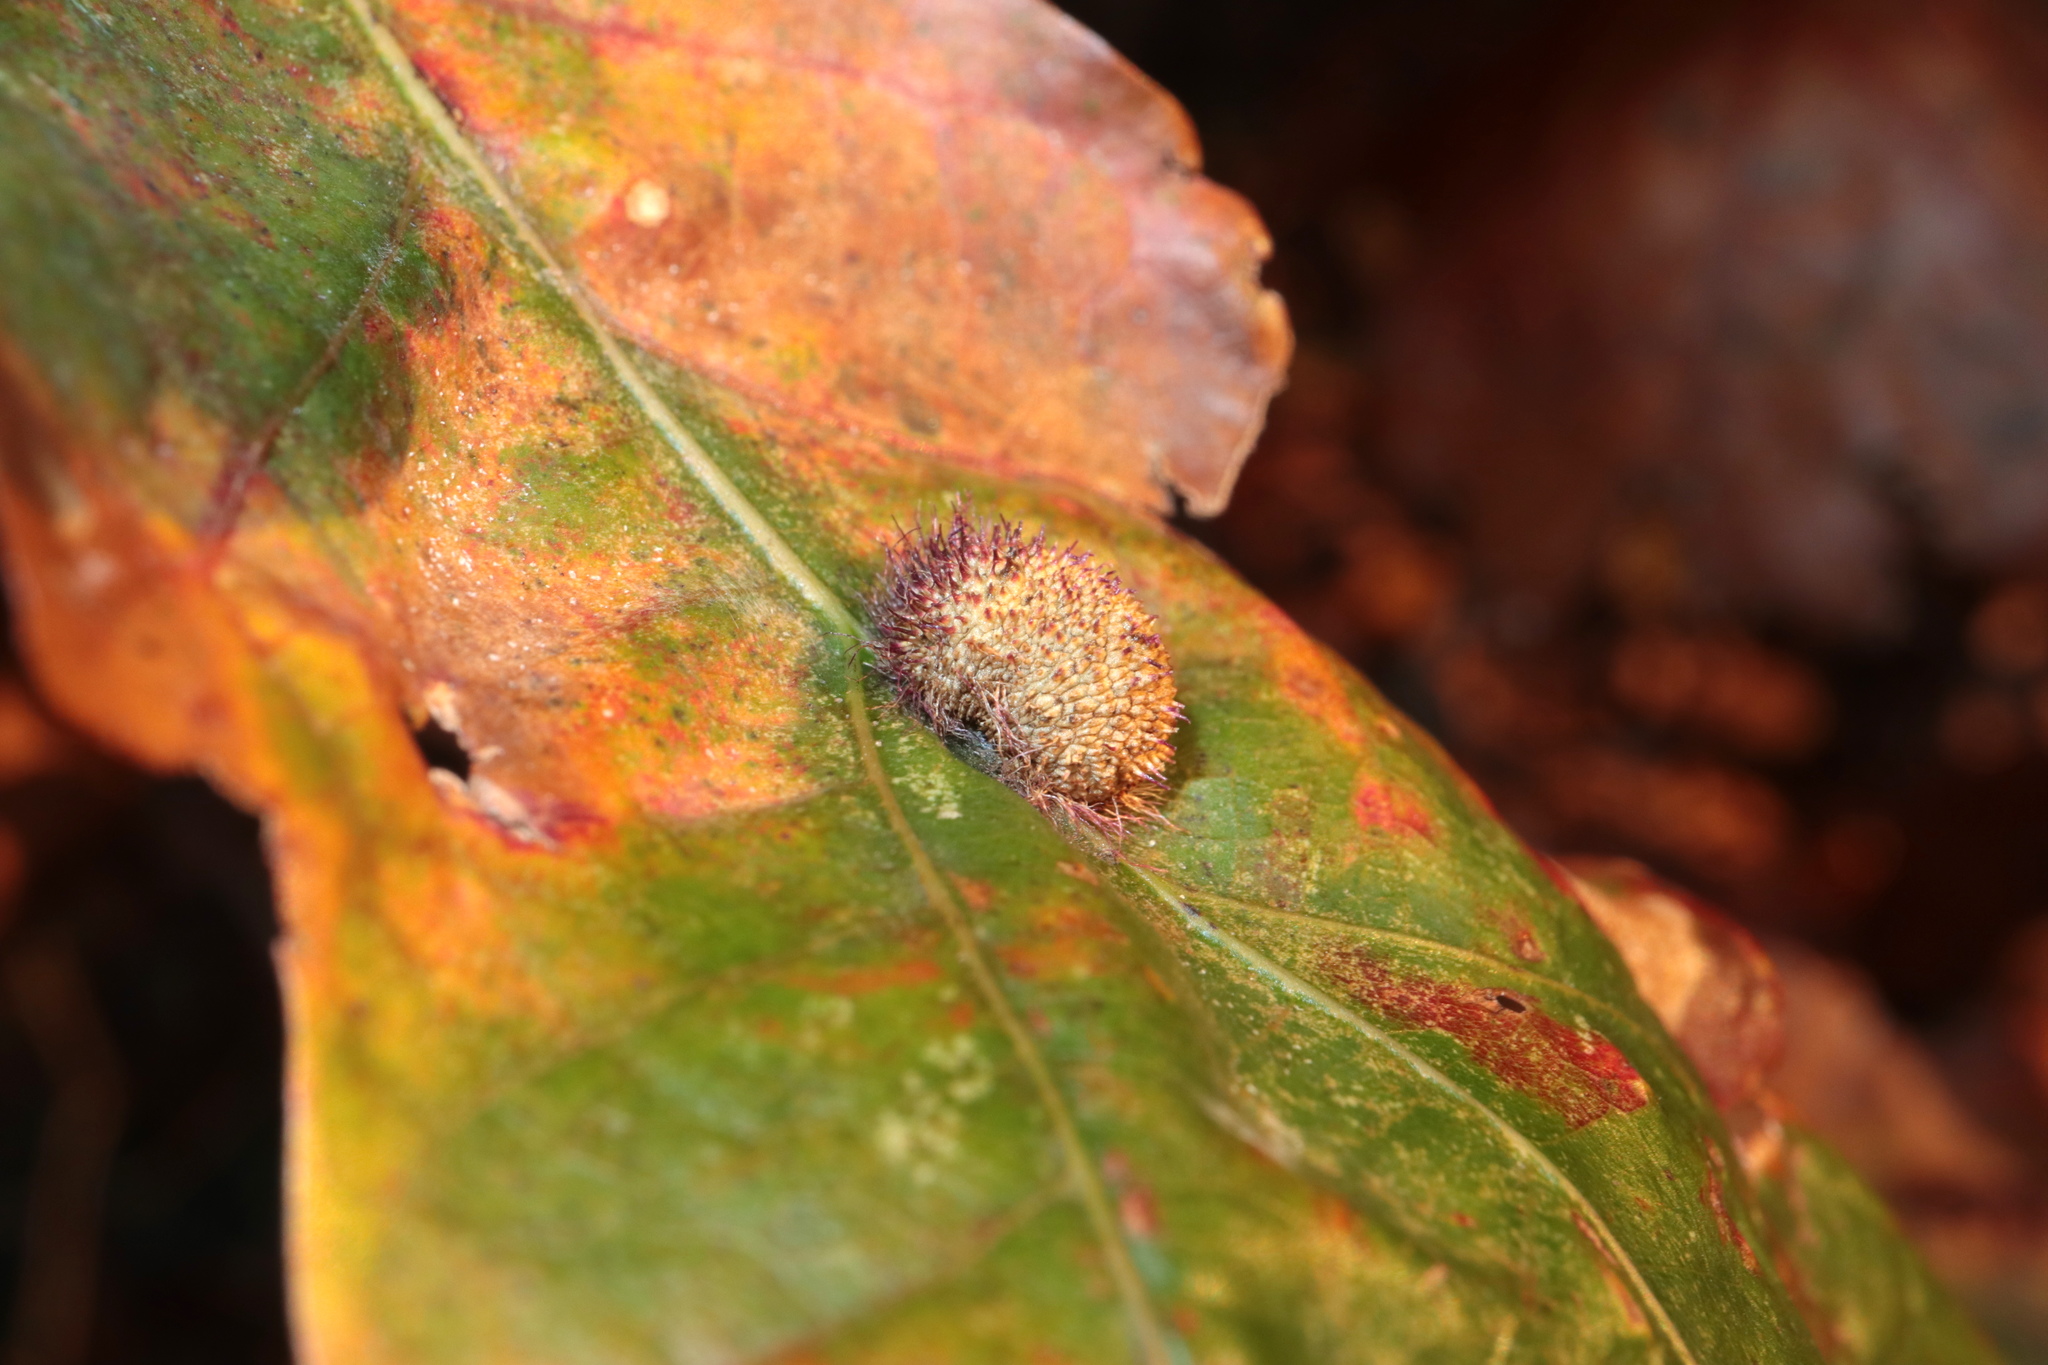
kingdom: Animalia
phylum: Arthropoda
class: Insecta
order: Hymenoptera
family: Cynipidae
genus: Acraspis
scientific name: Acraspis erinacei
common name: Hedgehog gall wasp
